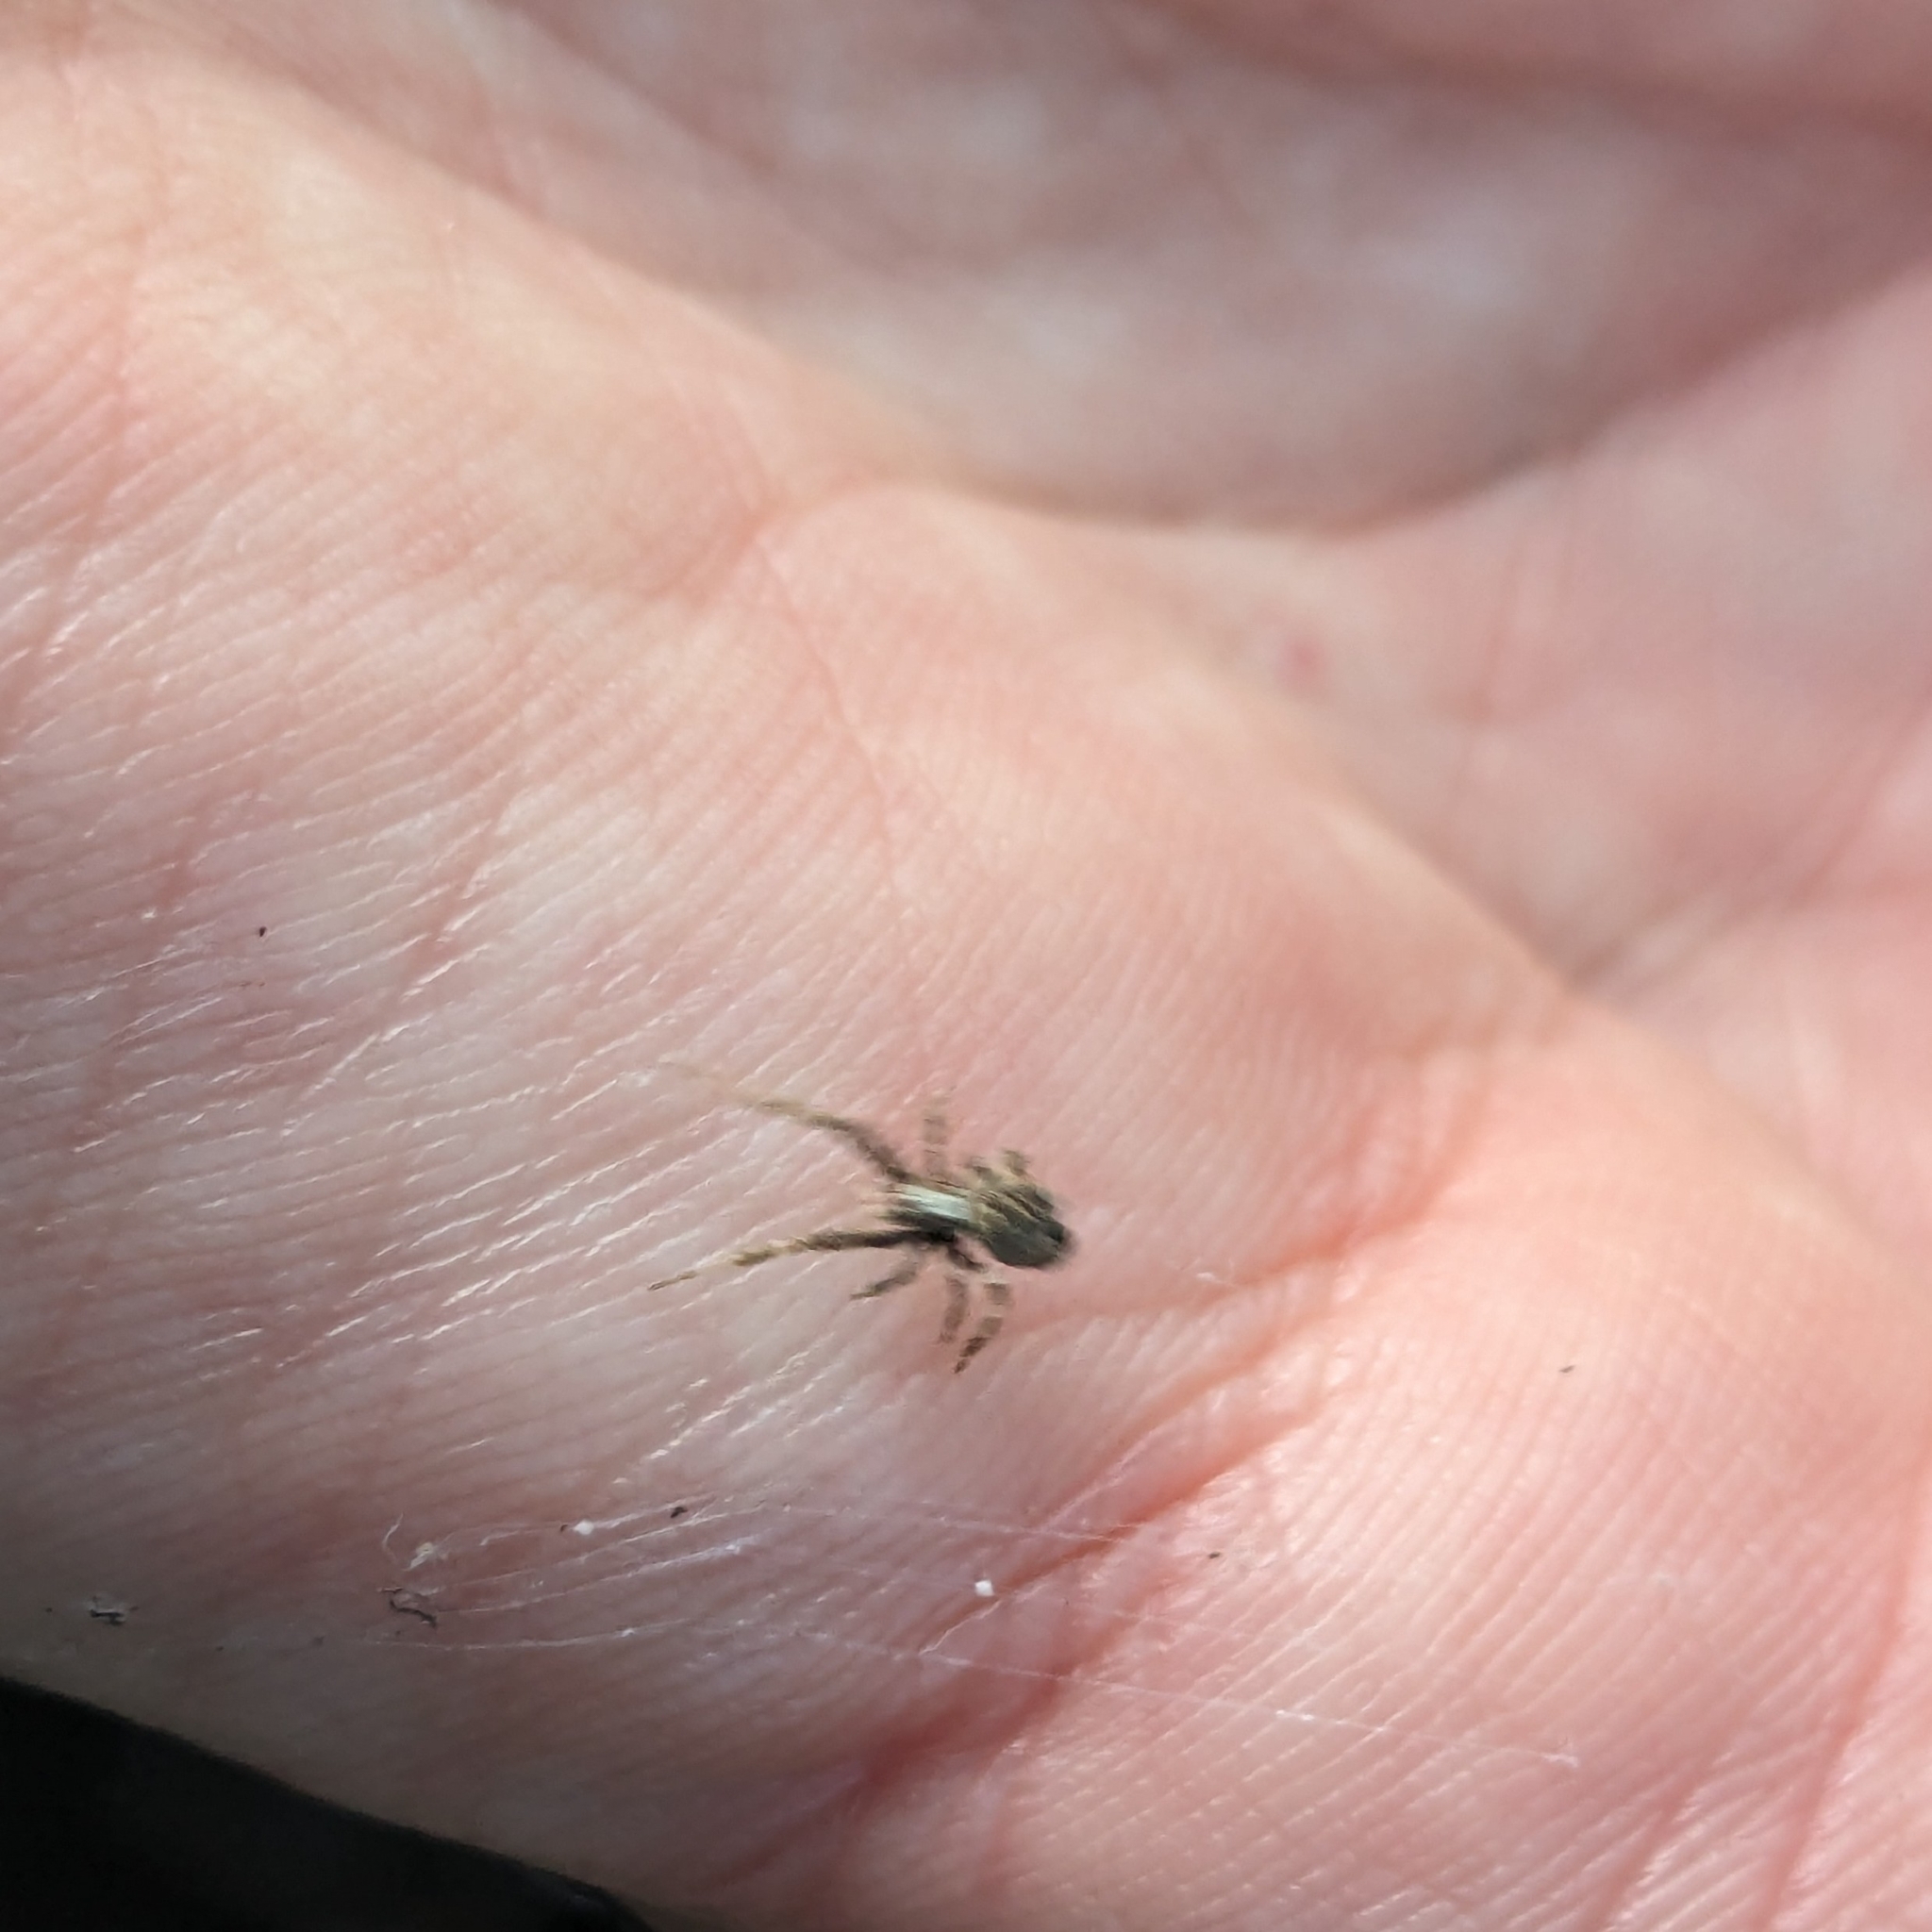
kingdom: Animalia
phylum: Arthropoda
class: Arachnida
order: Araneae
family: Uloboridae
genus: Philoponella
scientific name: Philoponella congregabilis
